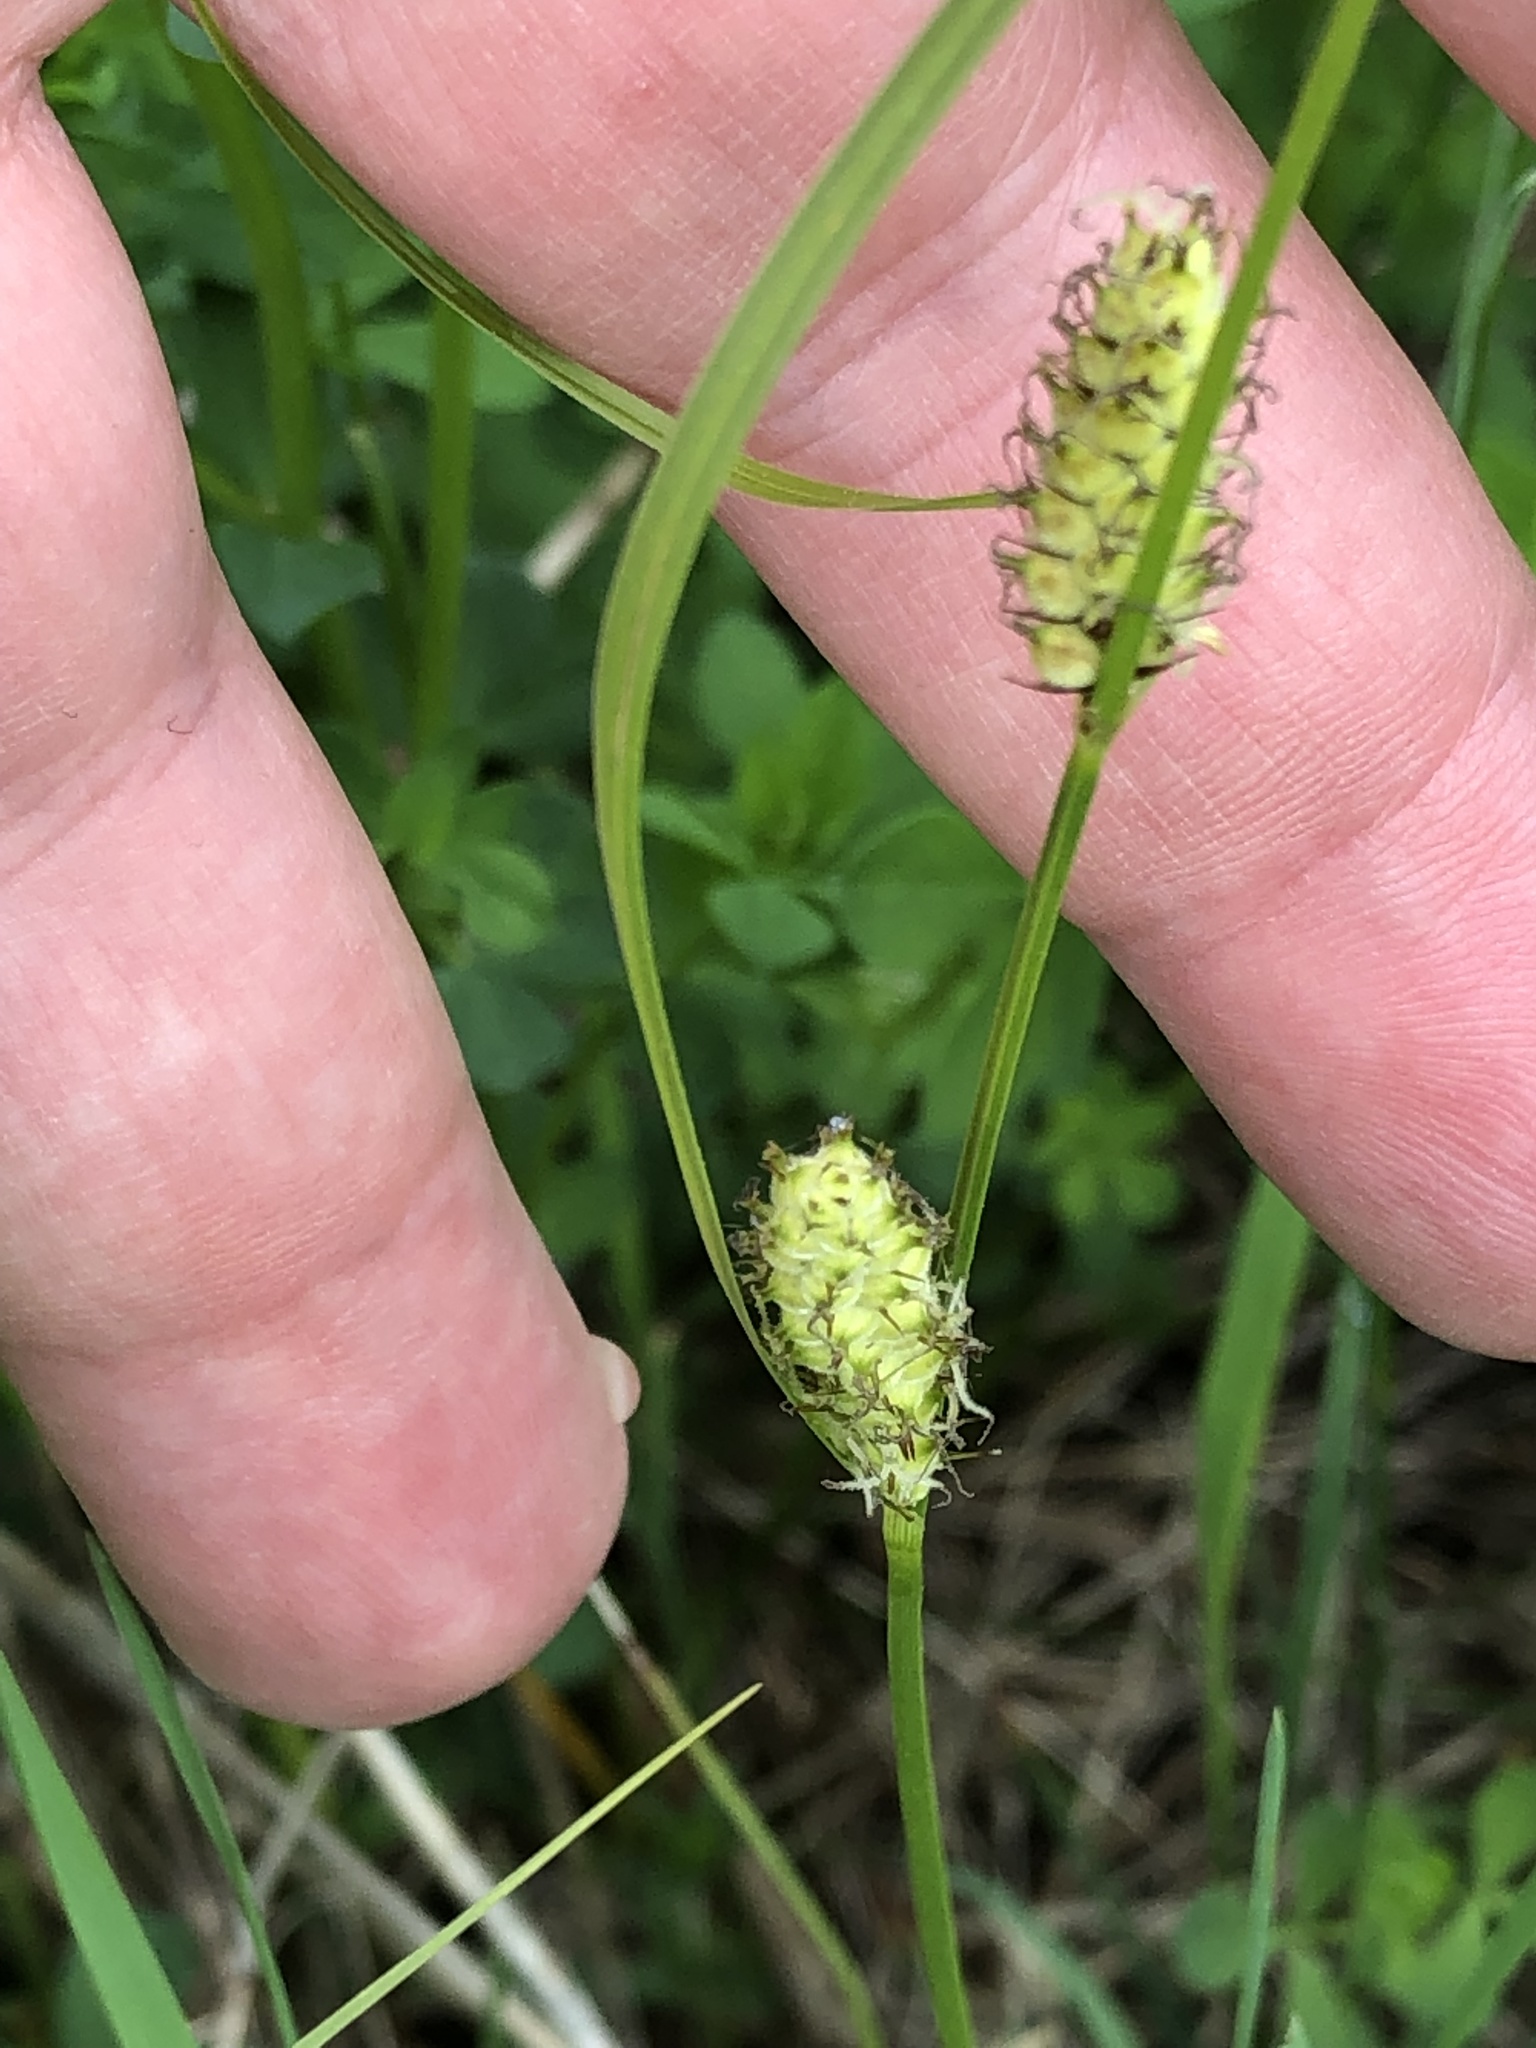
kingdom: Plantae
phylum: Tracheophyta
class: Liliopsida
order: Poales
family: Cyperaceae
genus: Carex
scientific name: Carex pellita
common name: Woolly sedge
